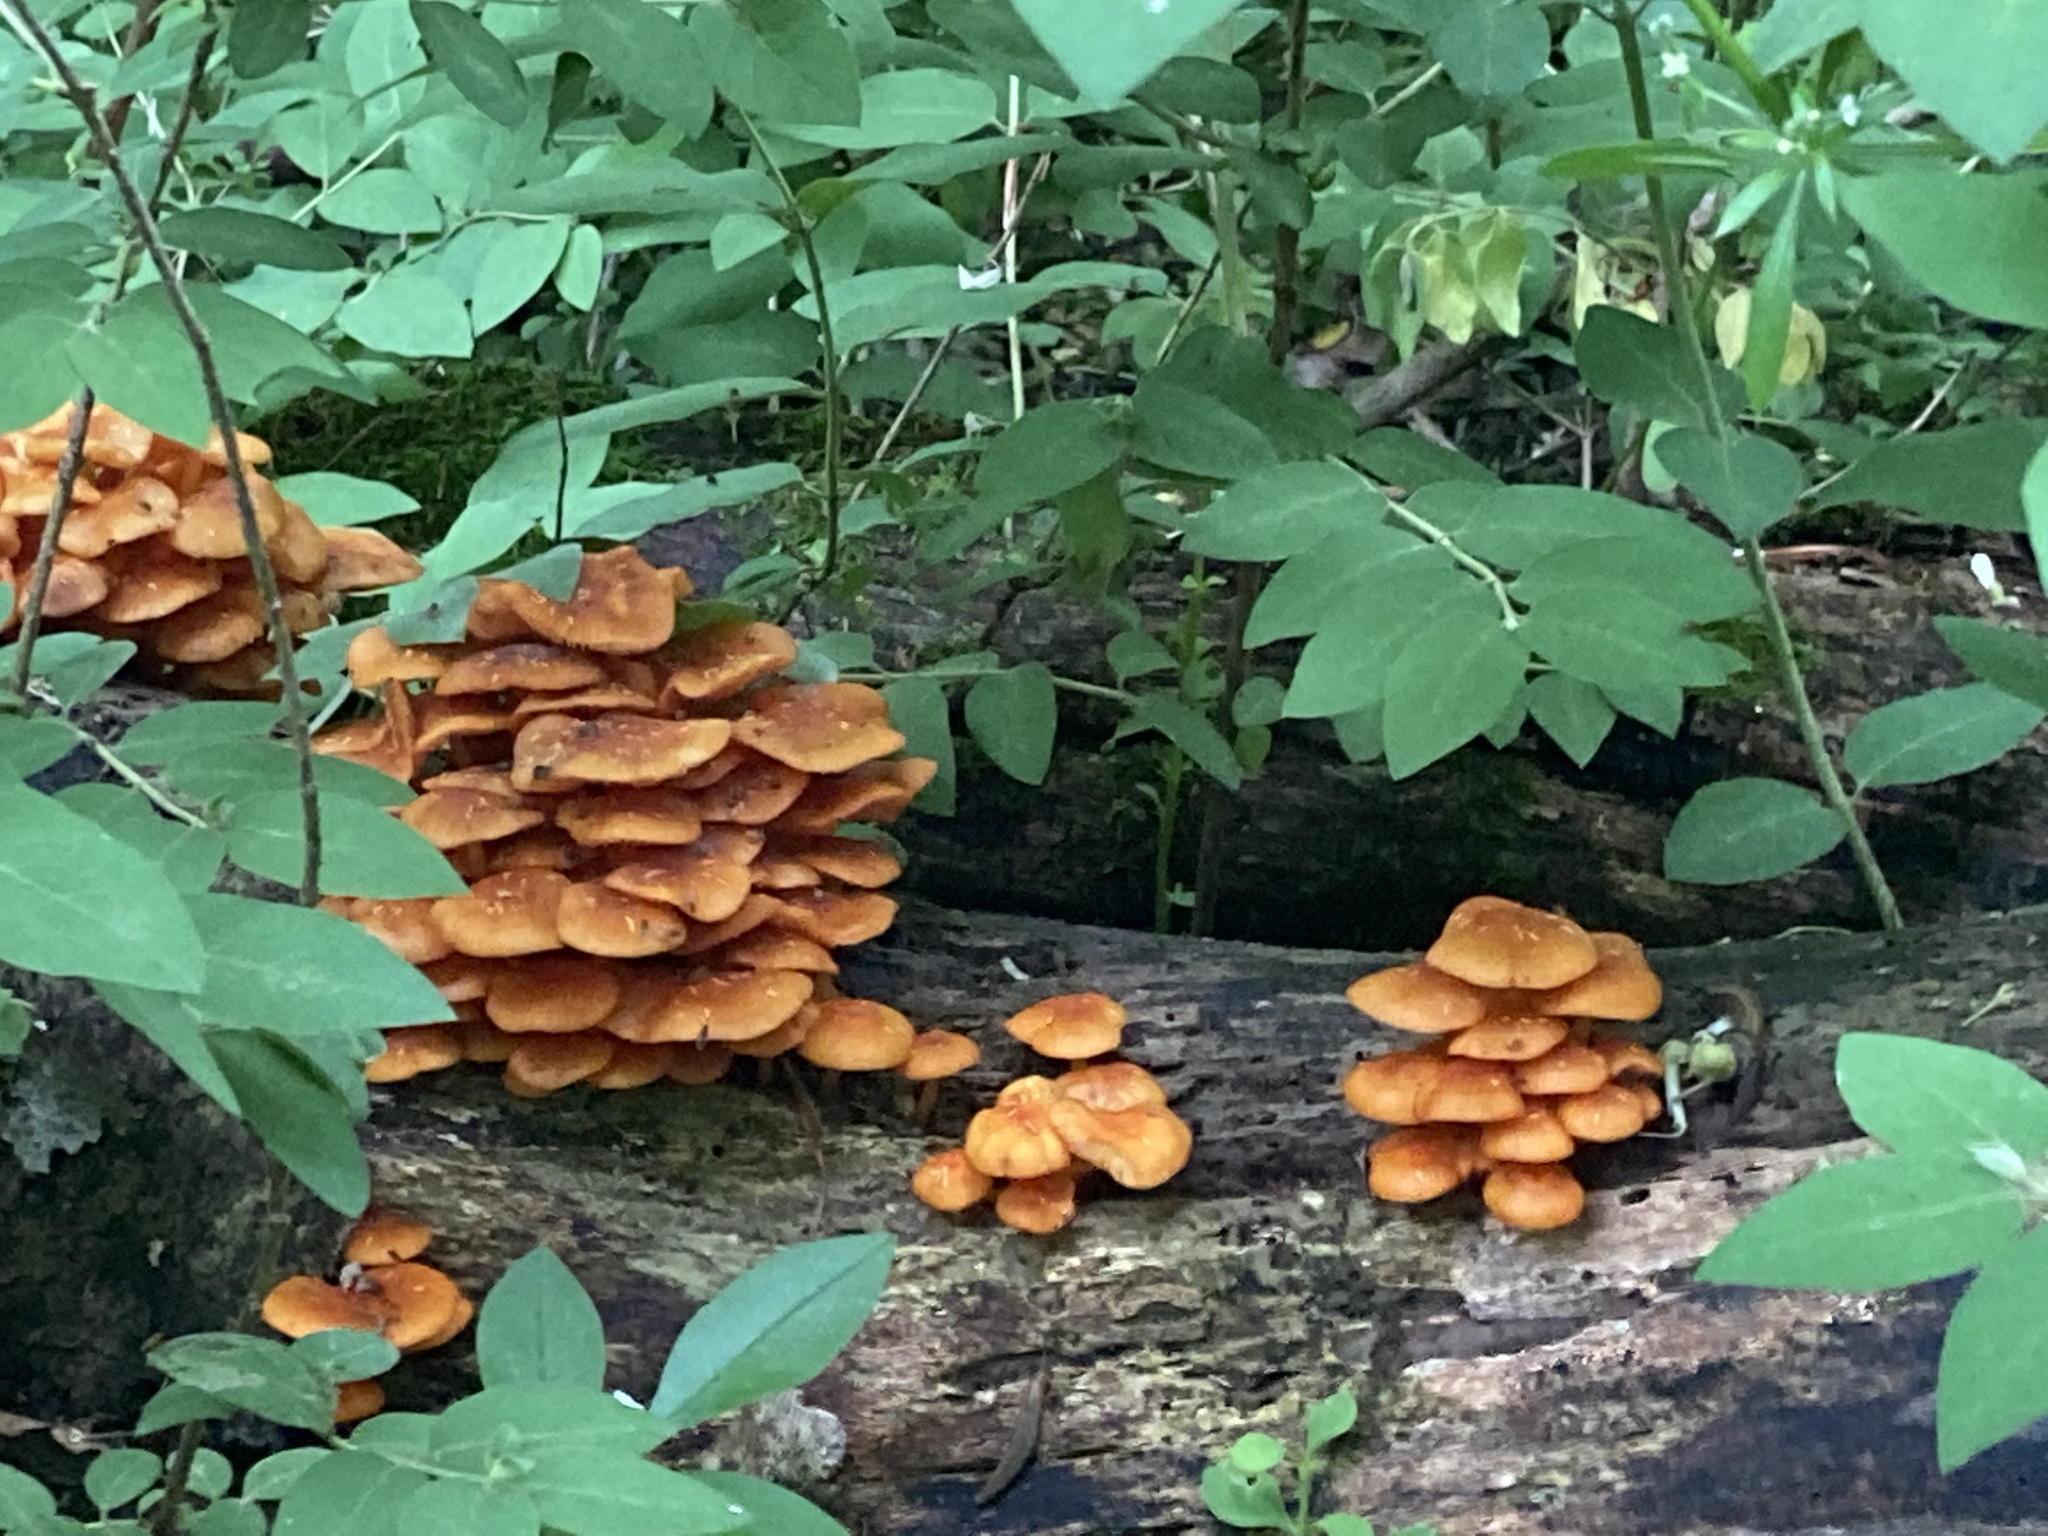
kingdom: Fungi
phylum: Basidiomycota
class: Agaricomycetes
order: Agaricales
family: Mycenaceae
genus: Mycena
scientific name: Mycena leaiana
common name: Orange mycena
